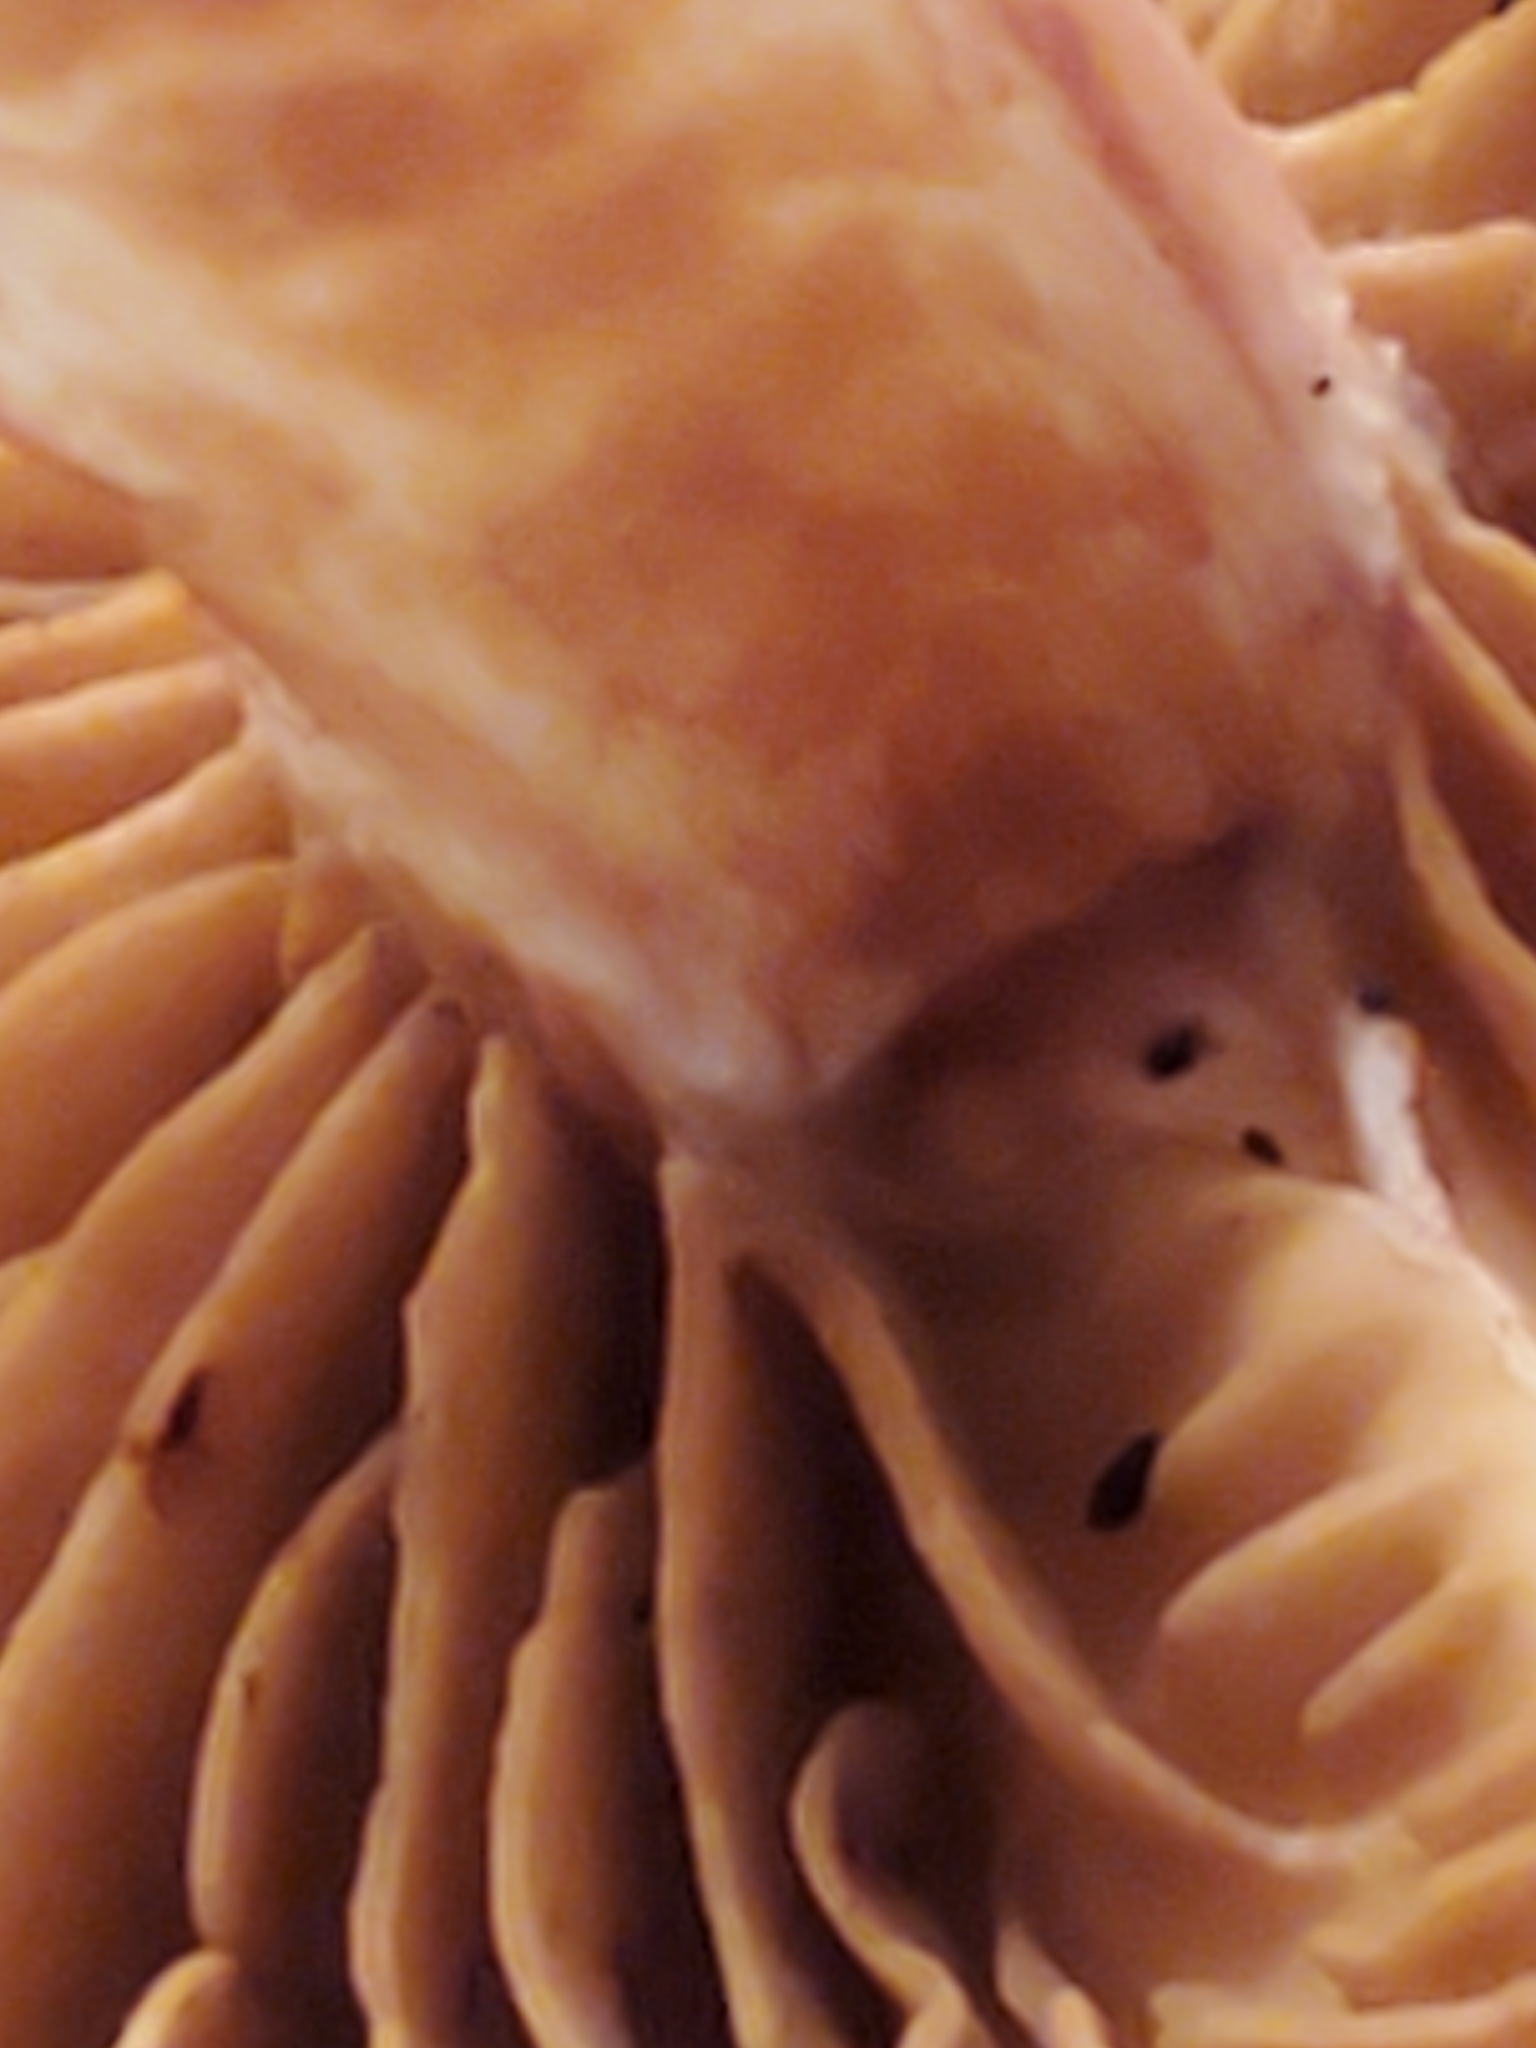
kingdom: Fungi
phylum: Basidiomycota
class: Agaricomycetes
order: Agaricales
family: Cortinariaceae
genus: Cortinarius
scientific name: Cortinarius bolaris
